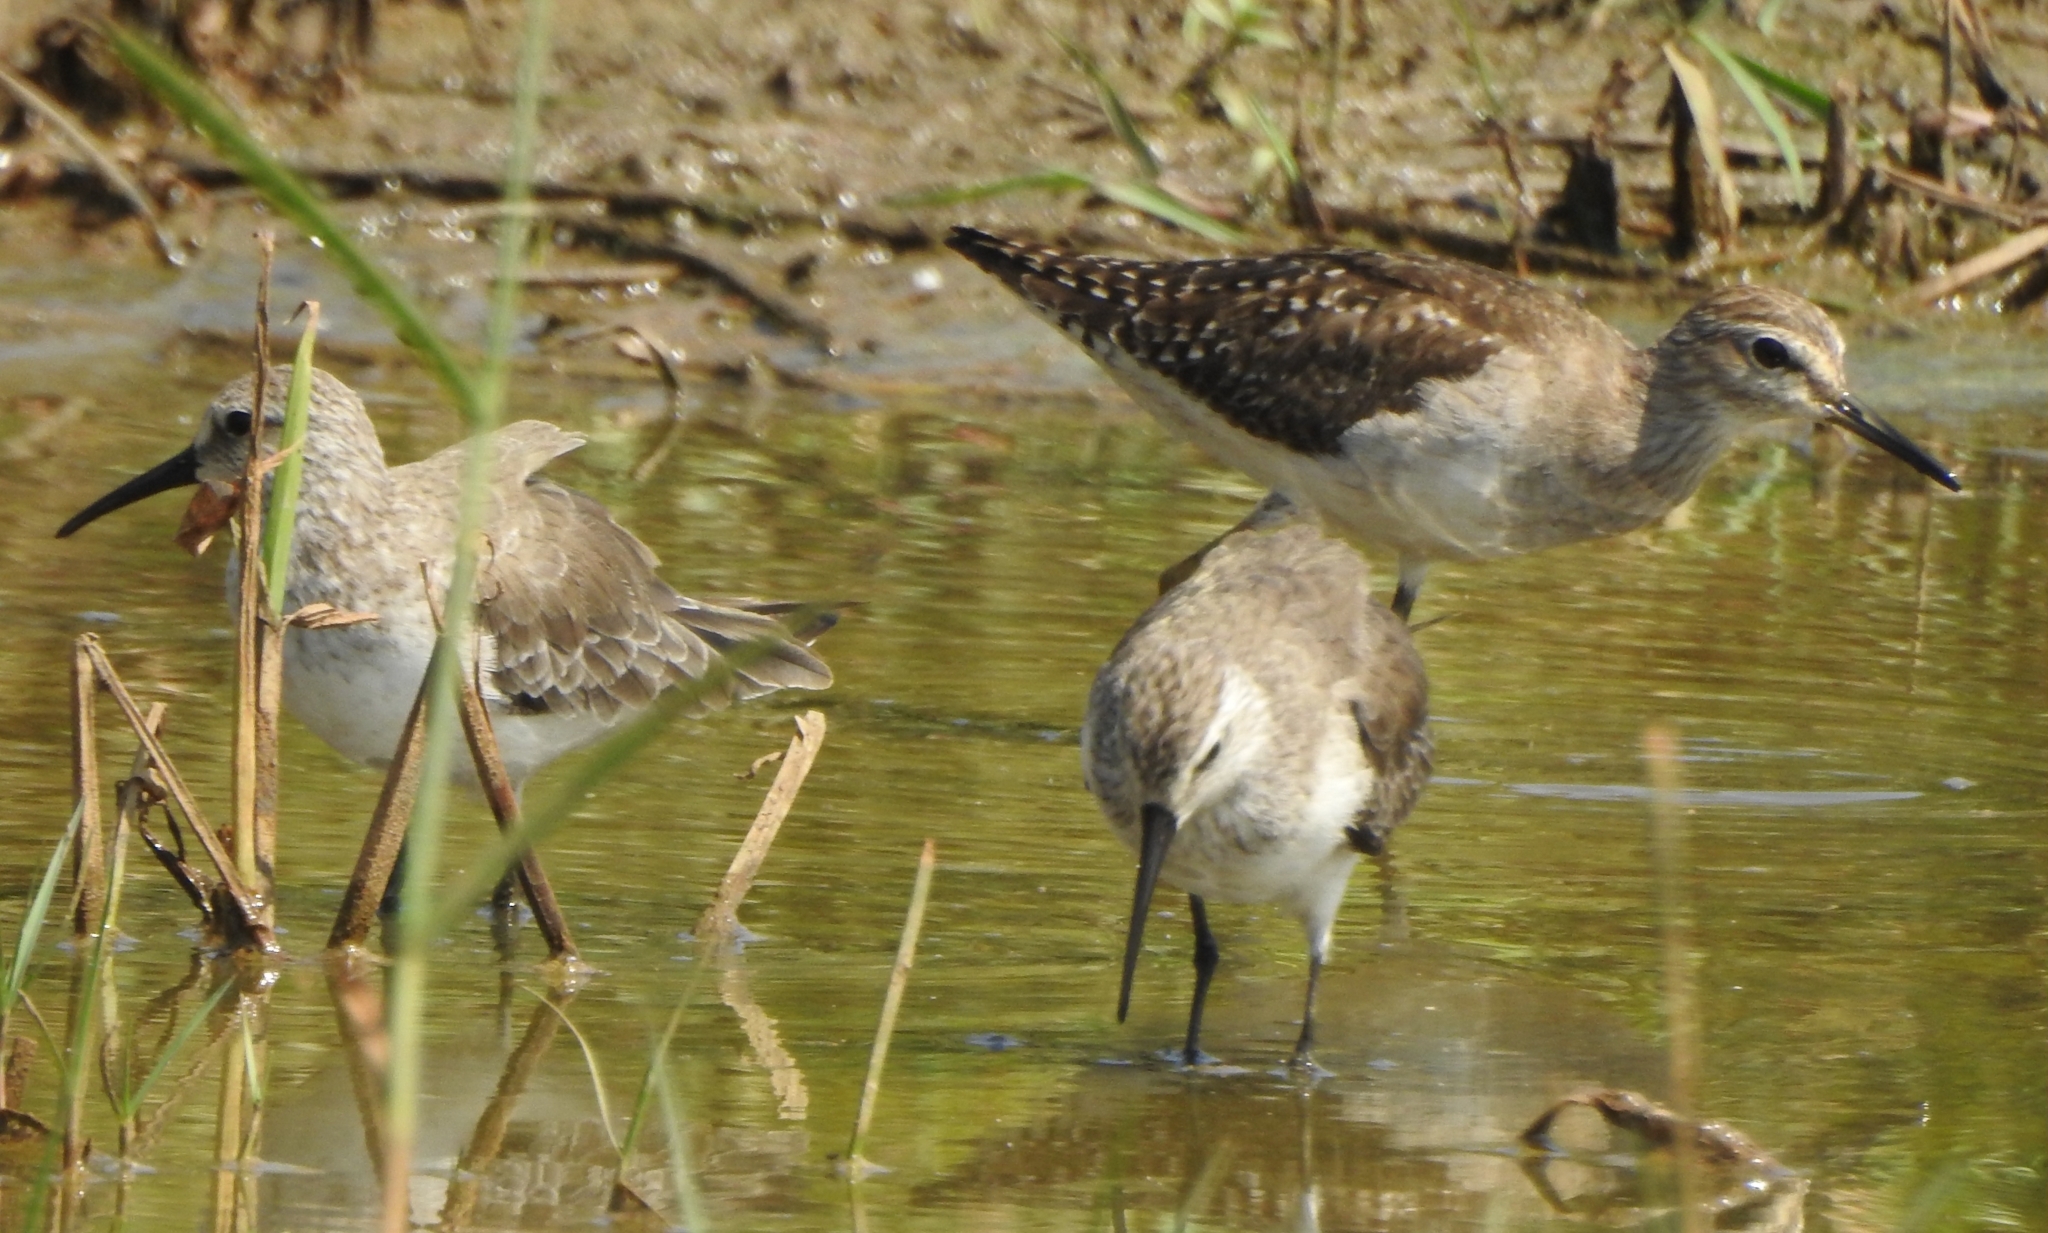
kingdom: Animalia
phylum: Chordata
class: Aves
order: Charadriiformes
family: Scolopacidae
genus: Tringa
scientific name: Tringa glareola
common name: Wood sandpiper
